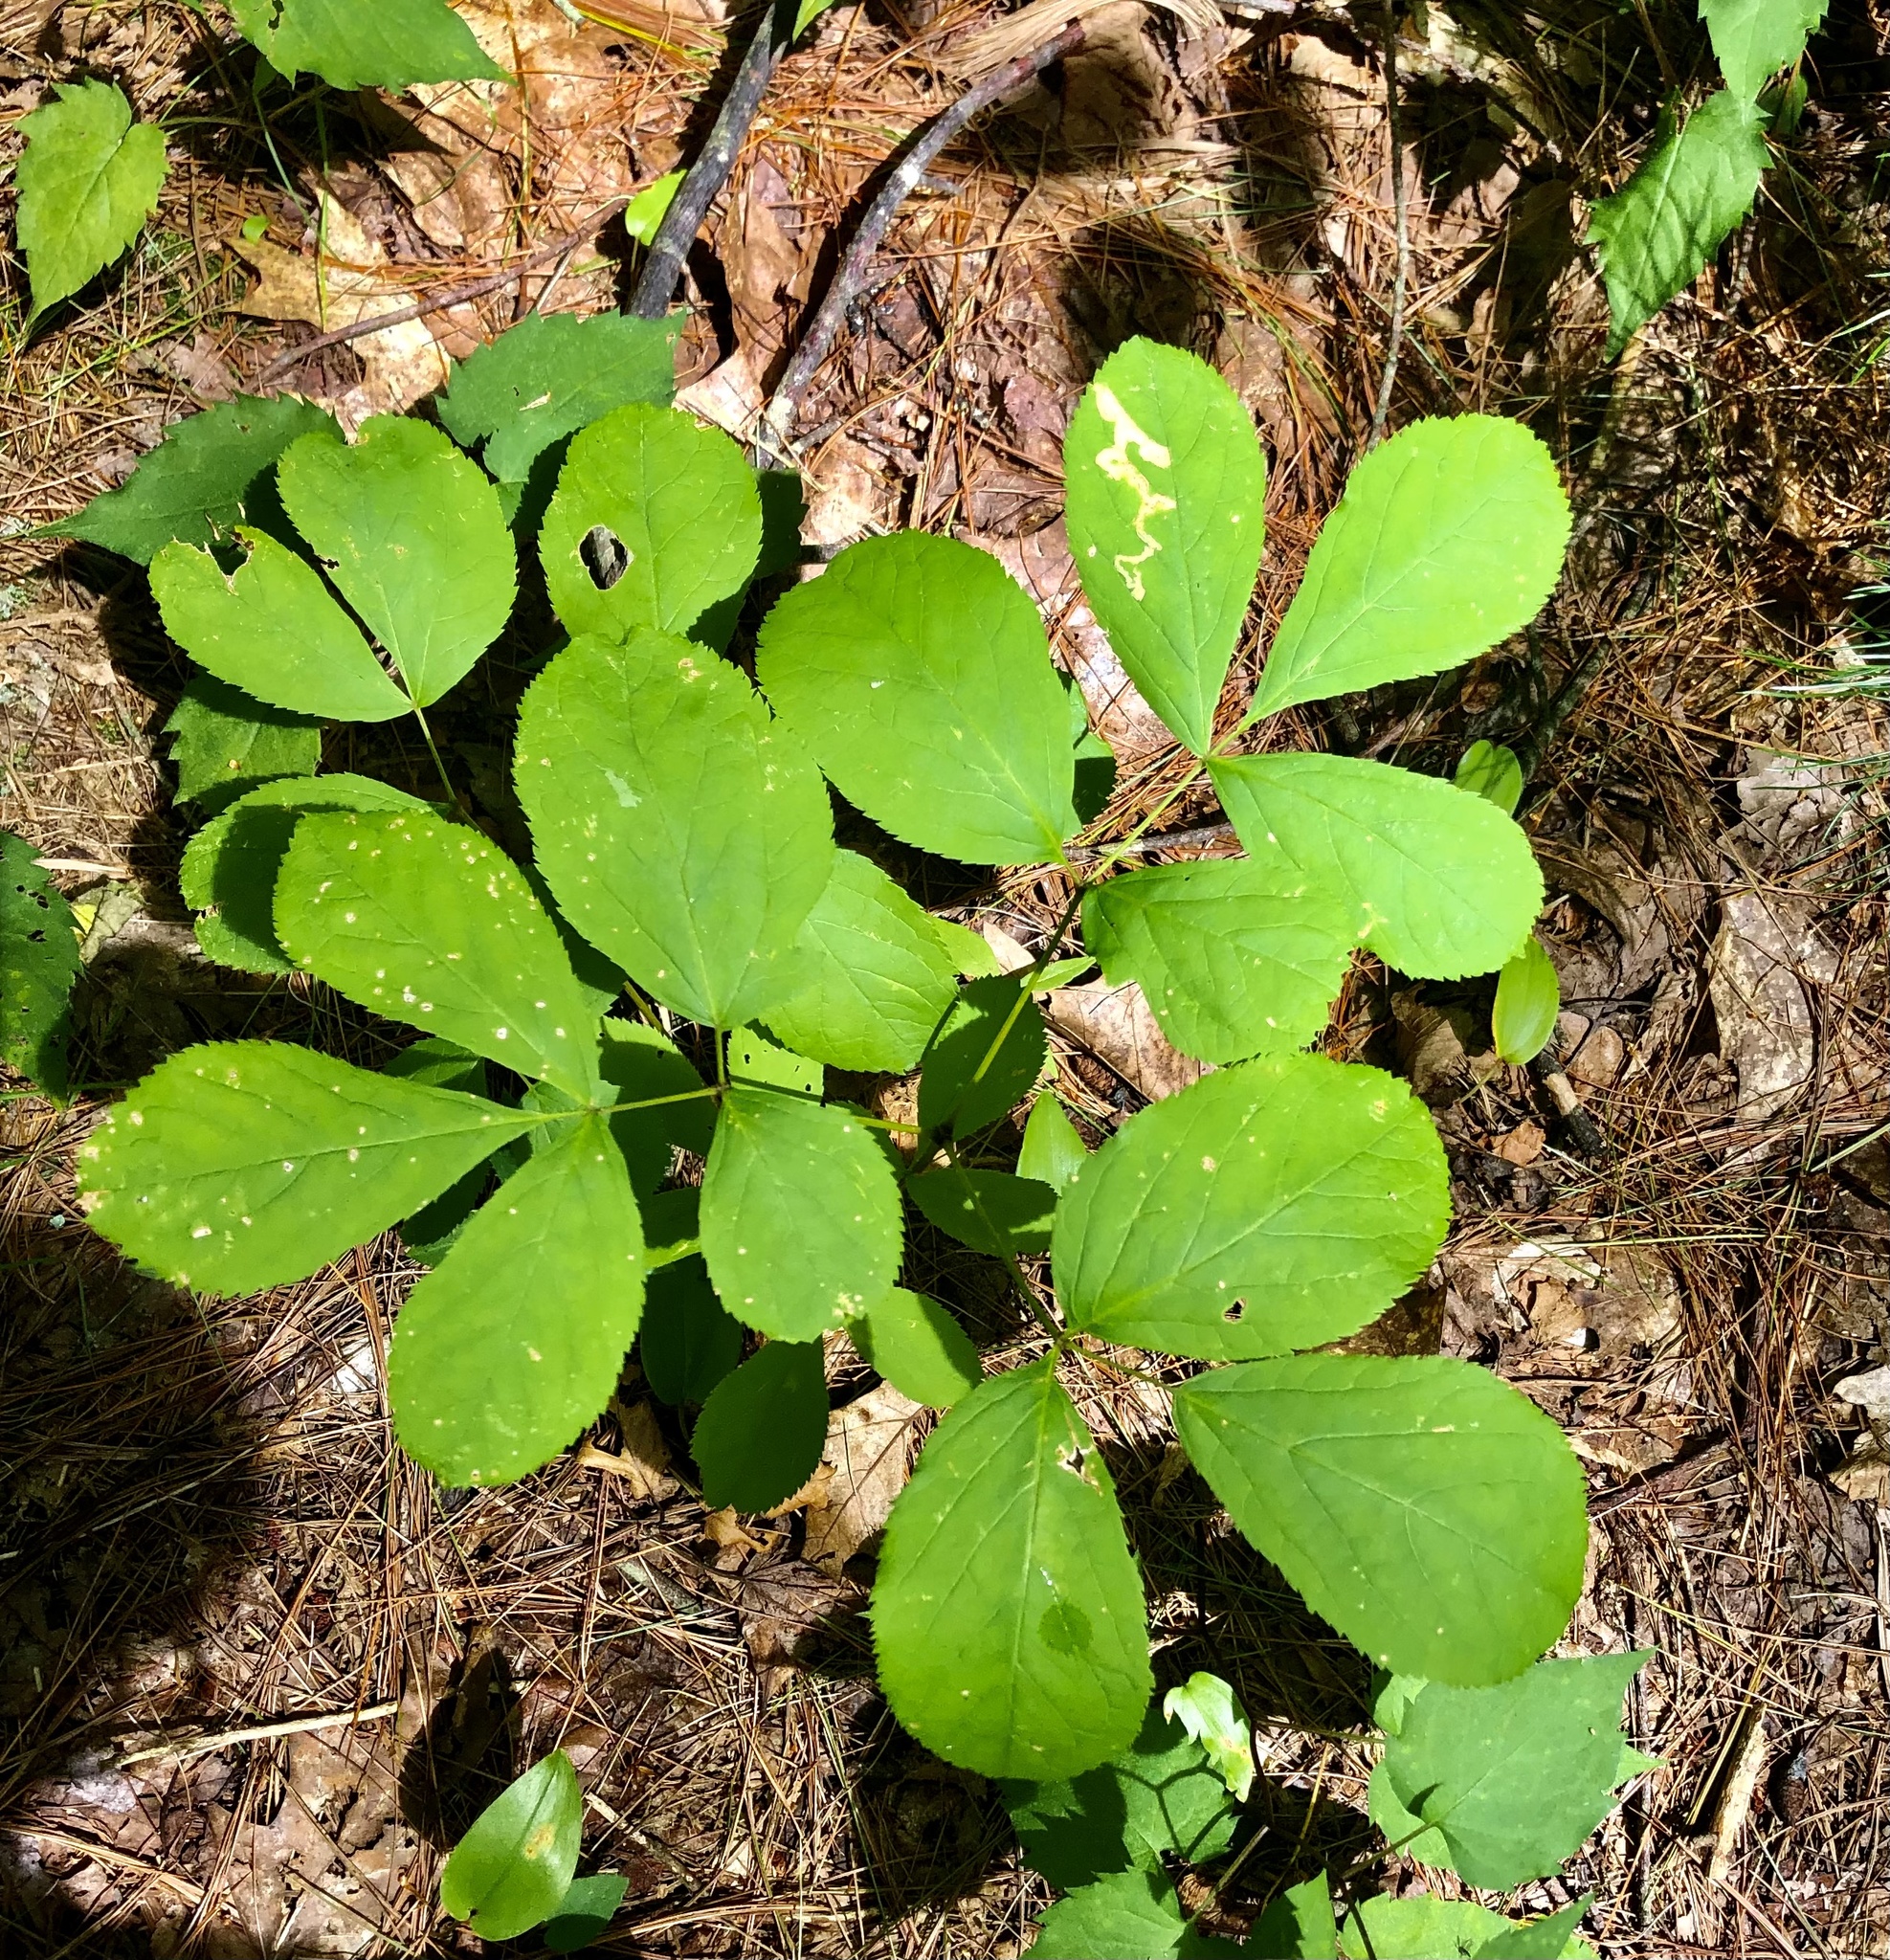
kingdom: Animalia
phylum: Arthropoda
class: Insecta
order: Diptera
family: Agromyzidae
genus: Phytomyza
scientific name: Phytomyza aralivora
